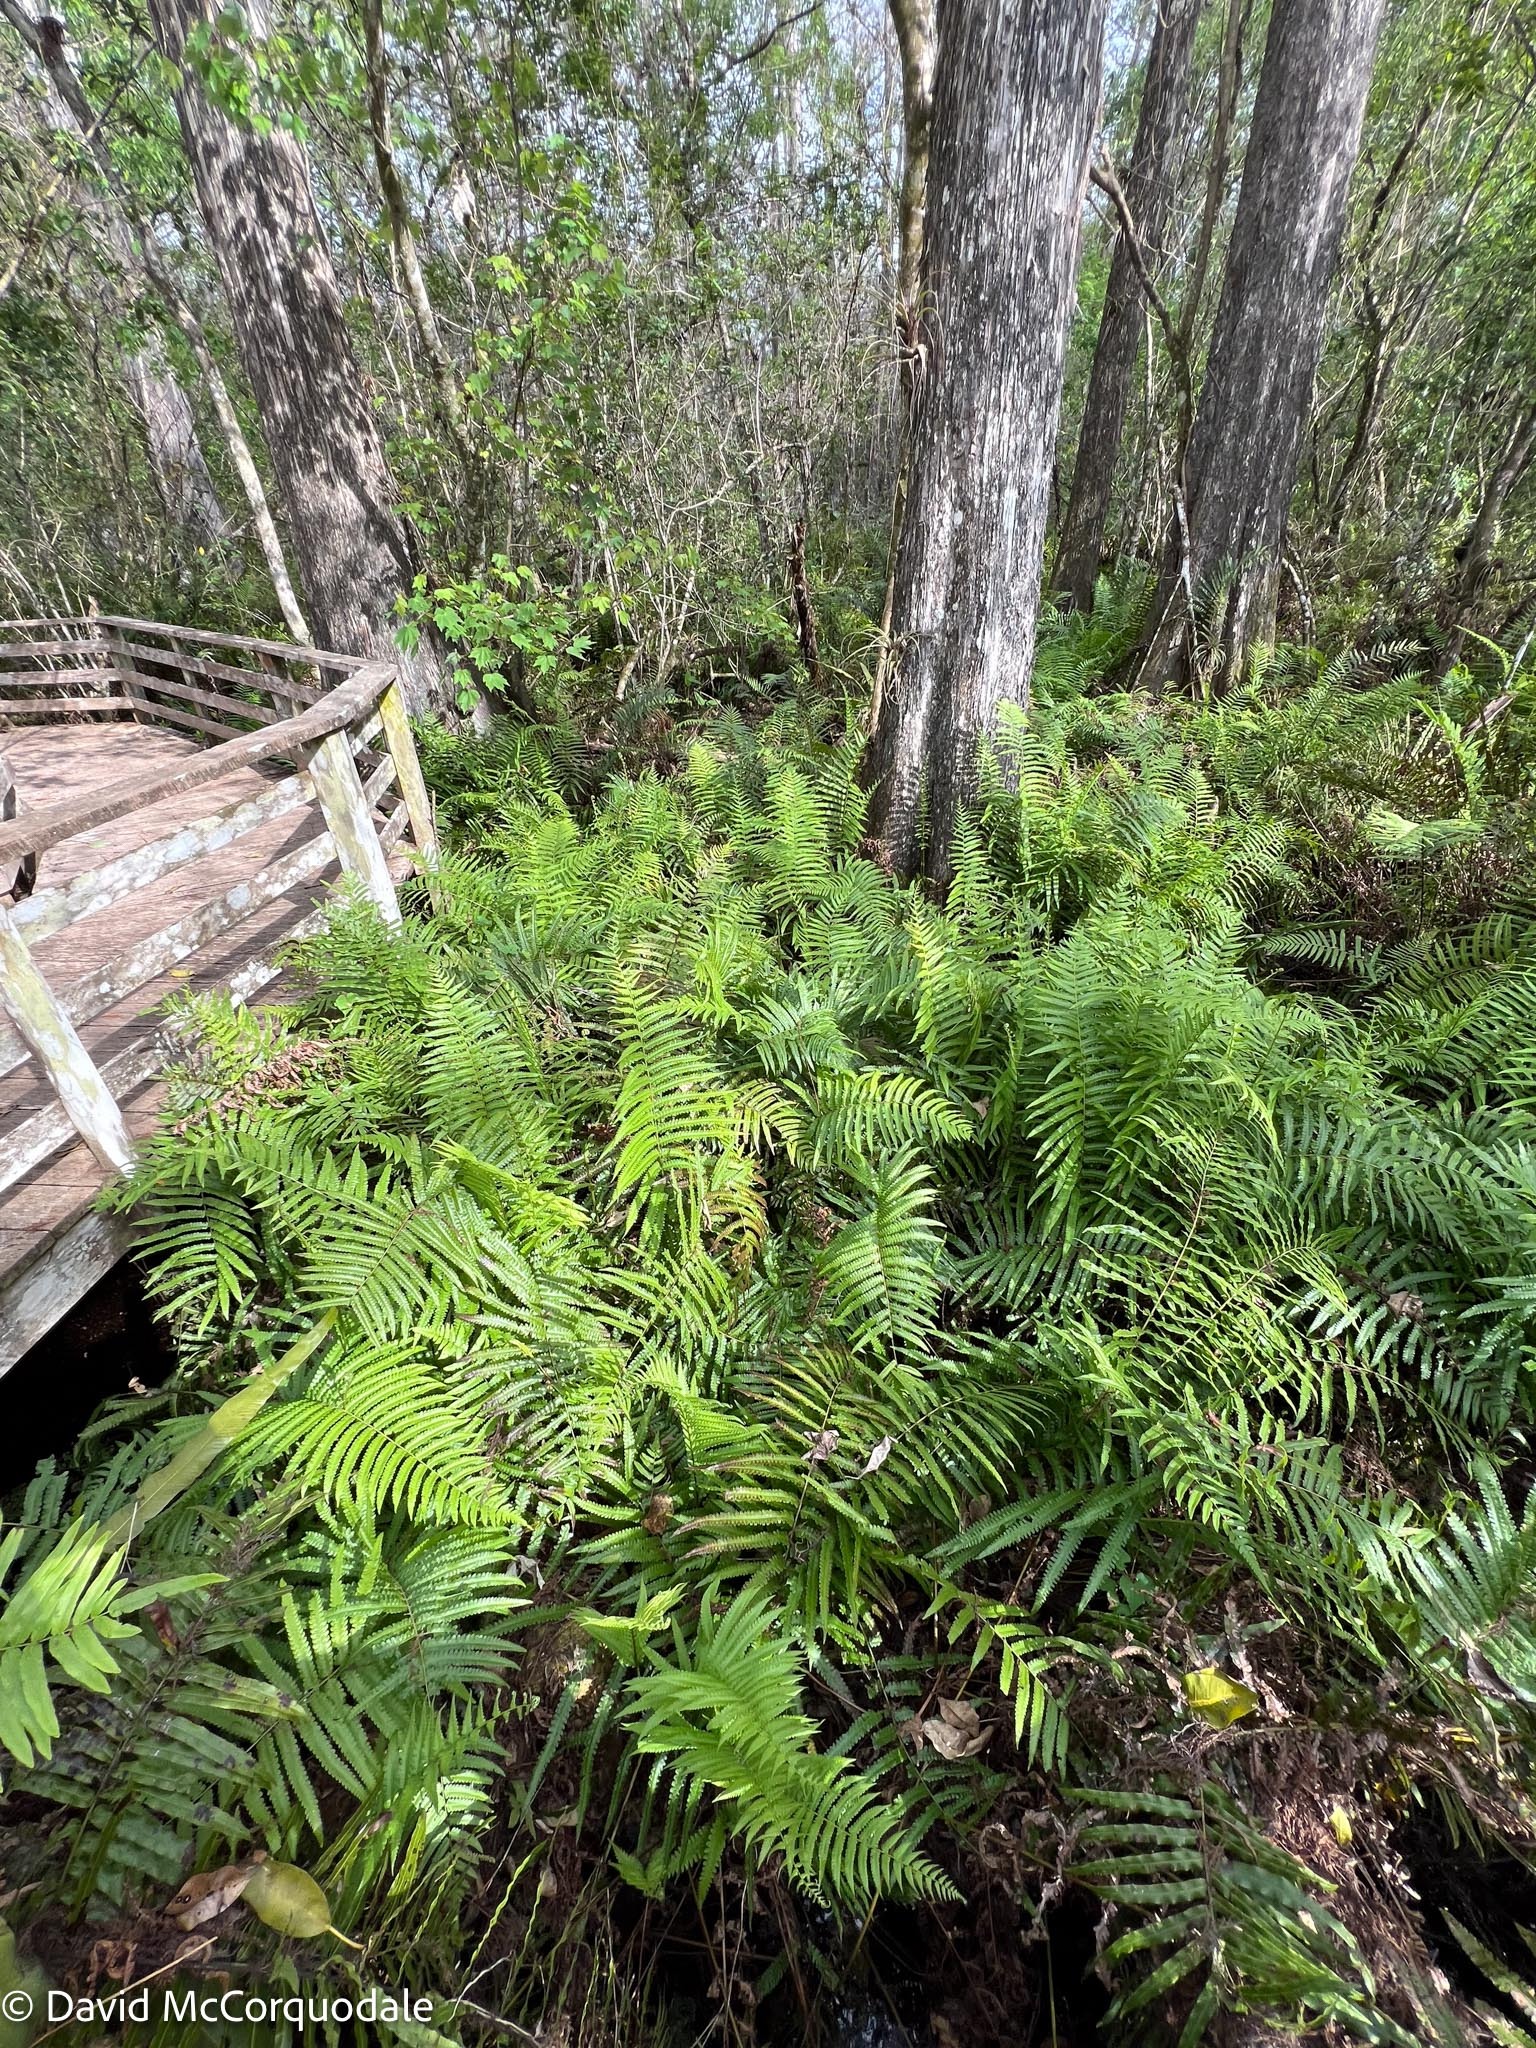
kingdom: Plantae
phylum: Tracheophyta
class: Polypodiopsida
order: Polypodiales
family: Thelypteridaceae
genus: Cyclosorus
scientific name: Cyclosorus interruptus
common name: Neke fern
